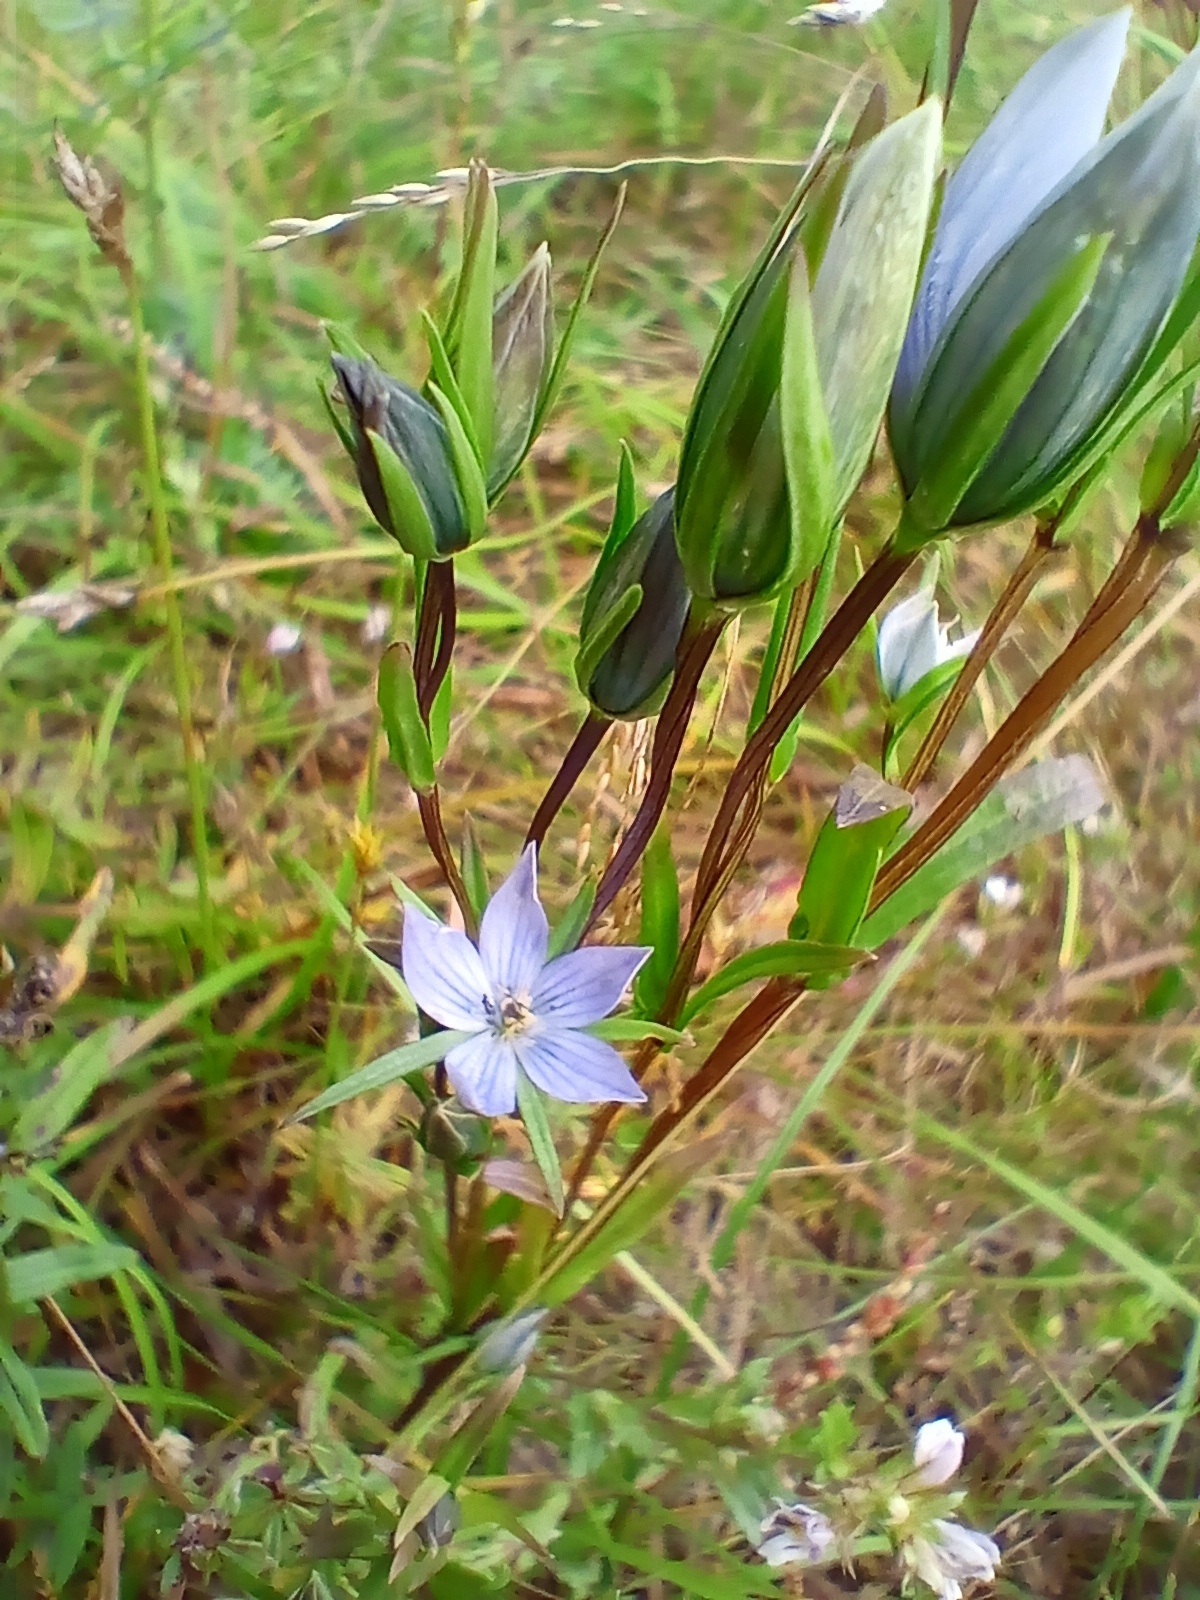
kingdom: Plantae
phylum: Tracheophyta
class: Magnoliopsida
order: Gentianales
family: Gentianaceae
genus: Lomatogonium
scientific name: Lomatogonium rotatum
